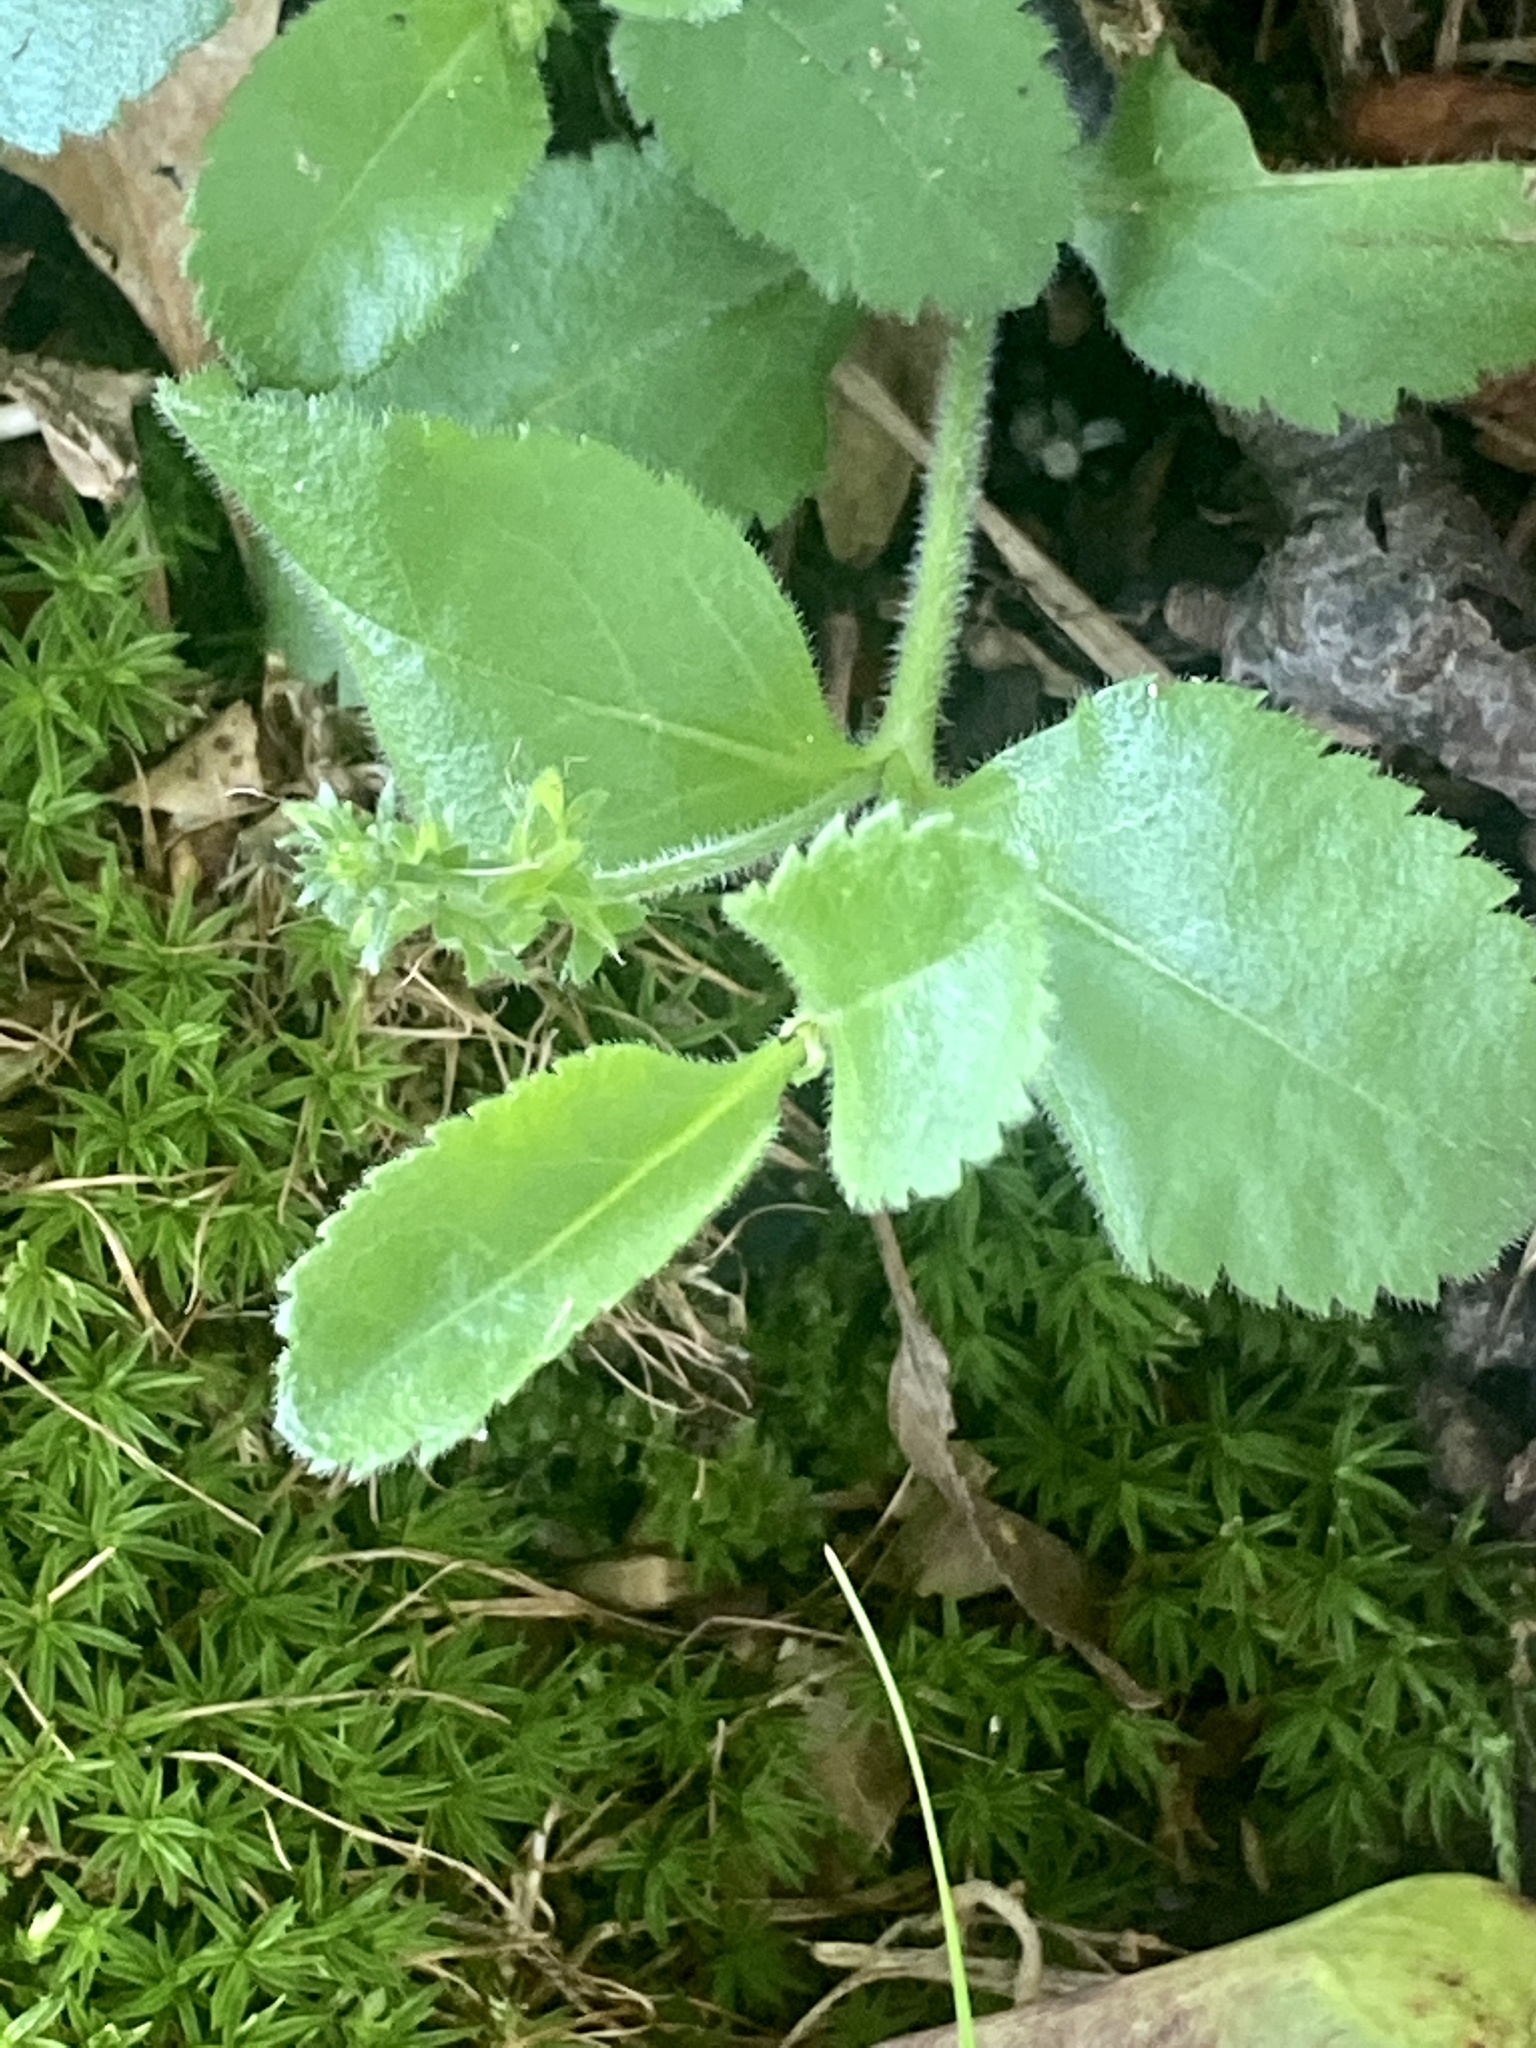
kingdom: Plantae
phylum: Tracheophyta
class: Magnoliopsida
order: Lamiales
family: Plantaginaceae
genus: Veronica
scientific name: Veronica officinalis
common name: Common speedwell
